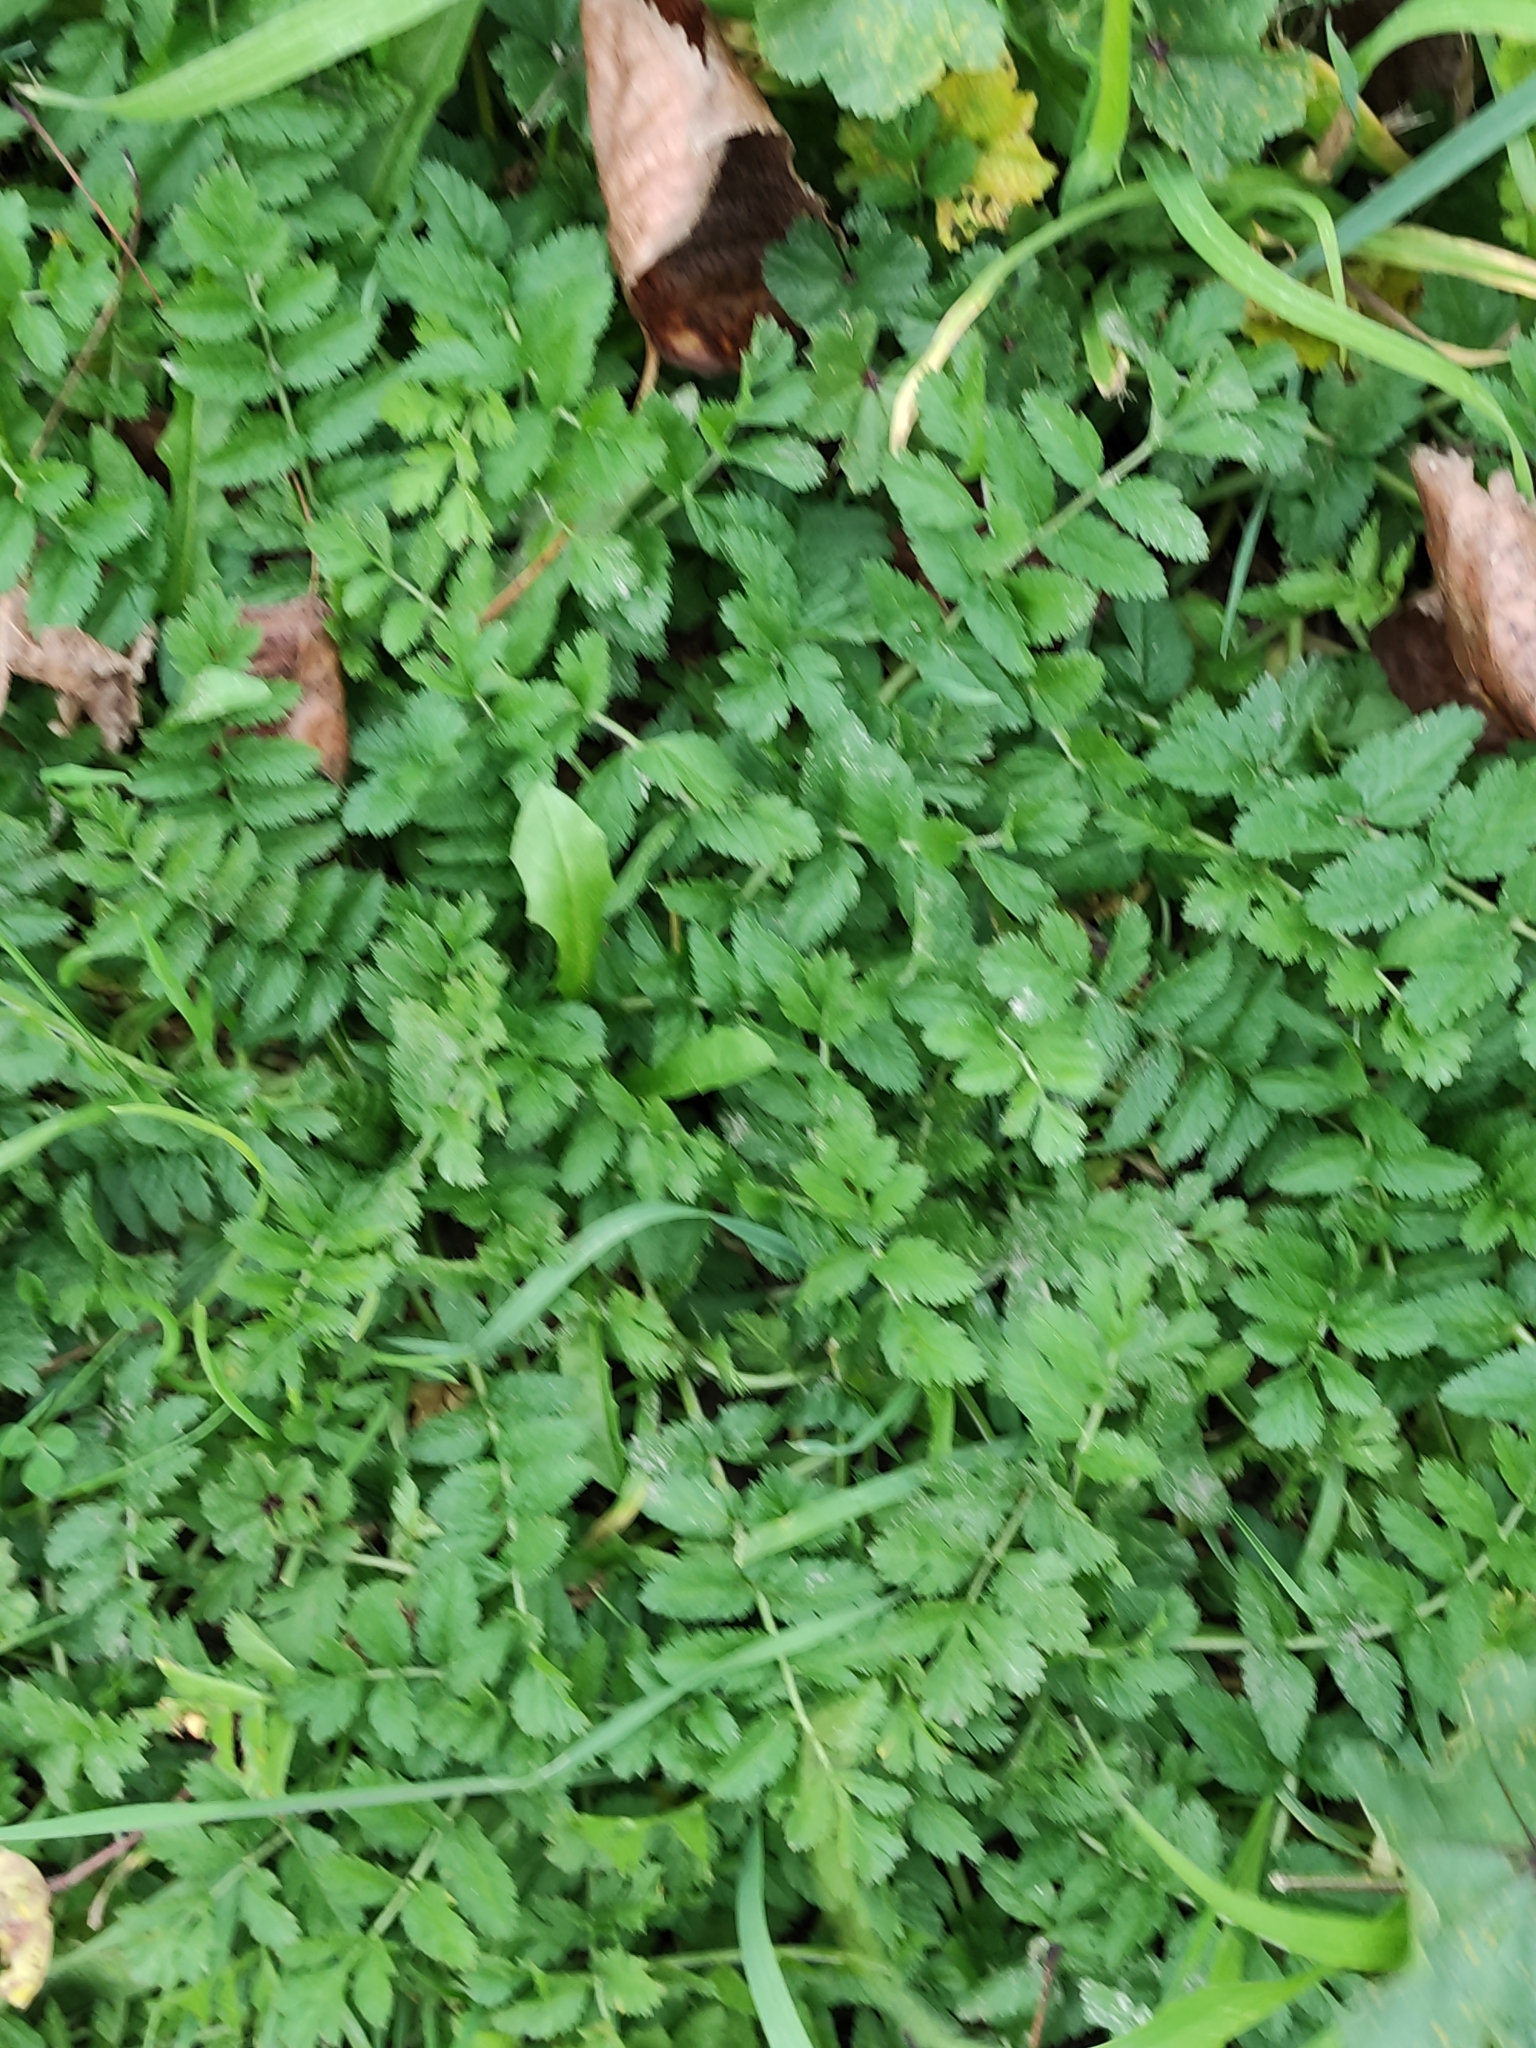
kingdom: Plantae
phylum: Tracheophyta
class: Magnoliopsida
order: Geraniales
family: Geraniaceae
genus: Erodium
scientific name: Erodium moschatum
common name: Musk stork's-bill
